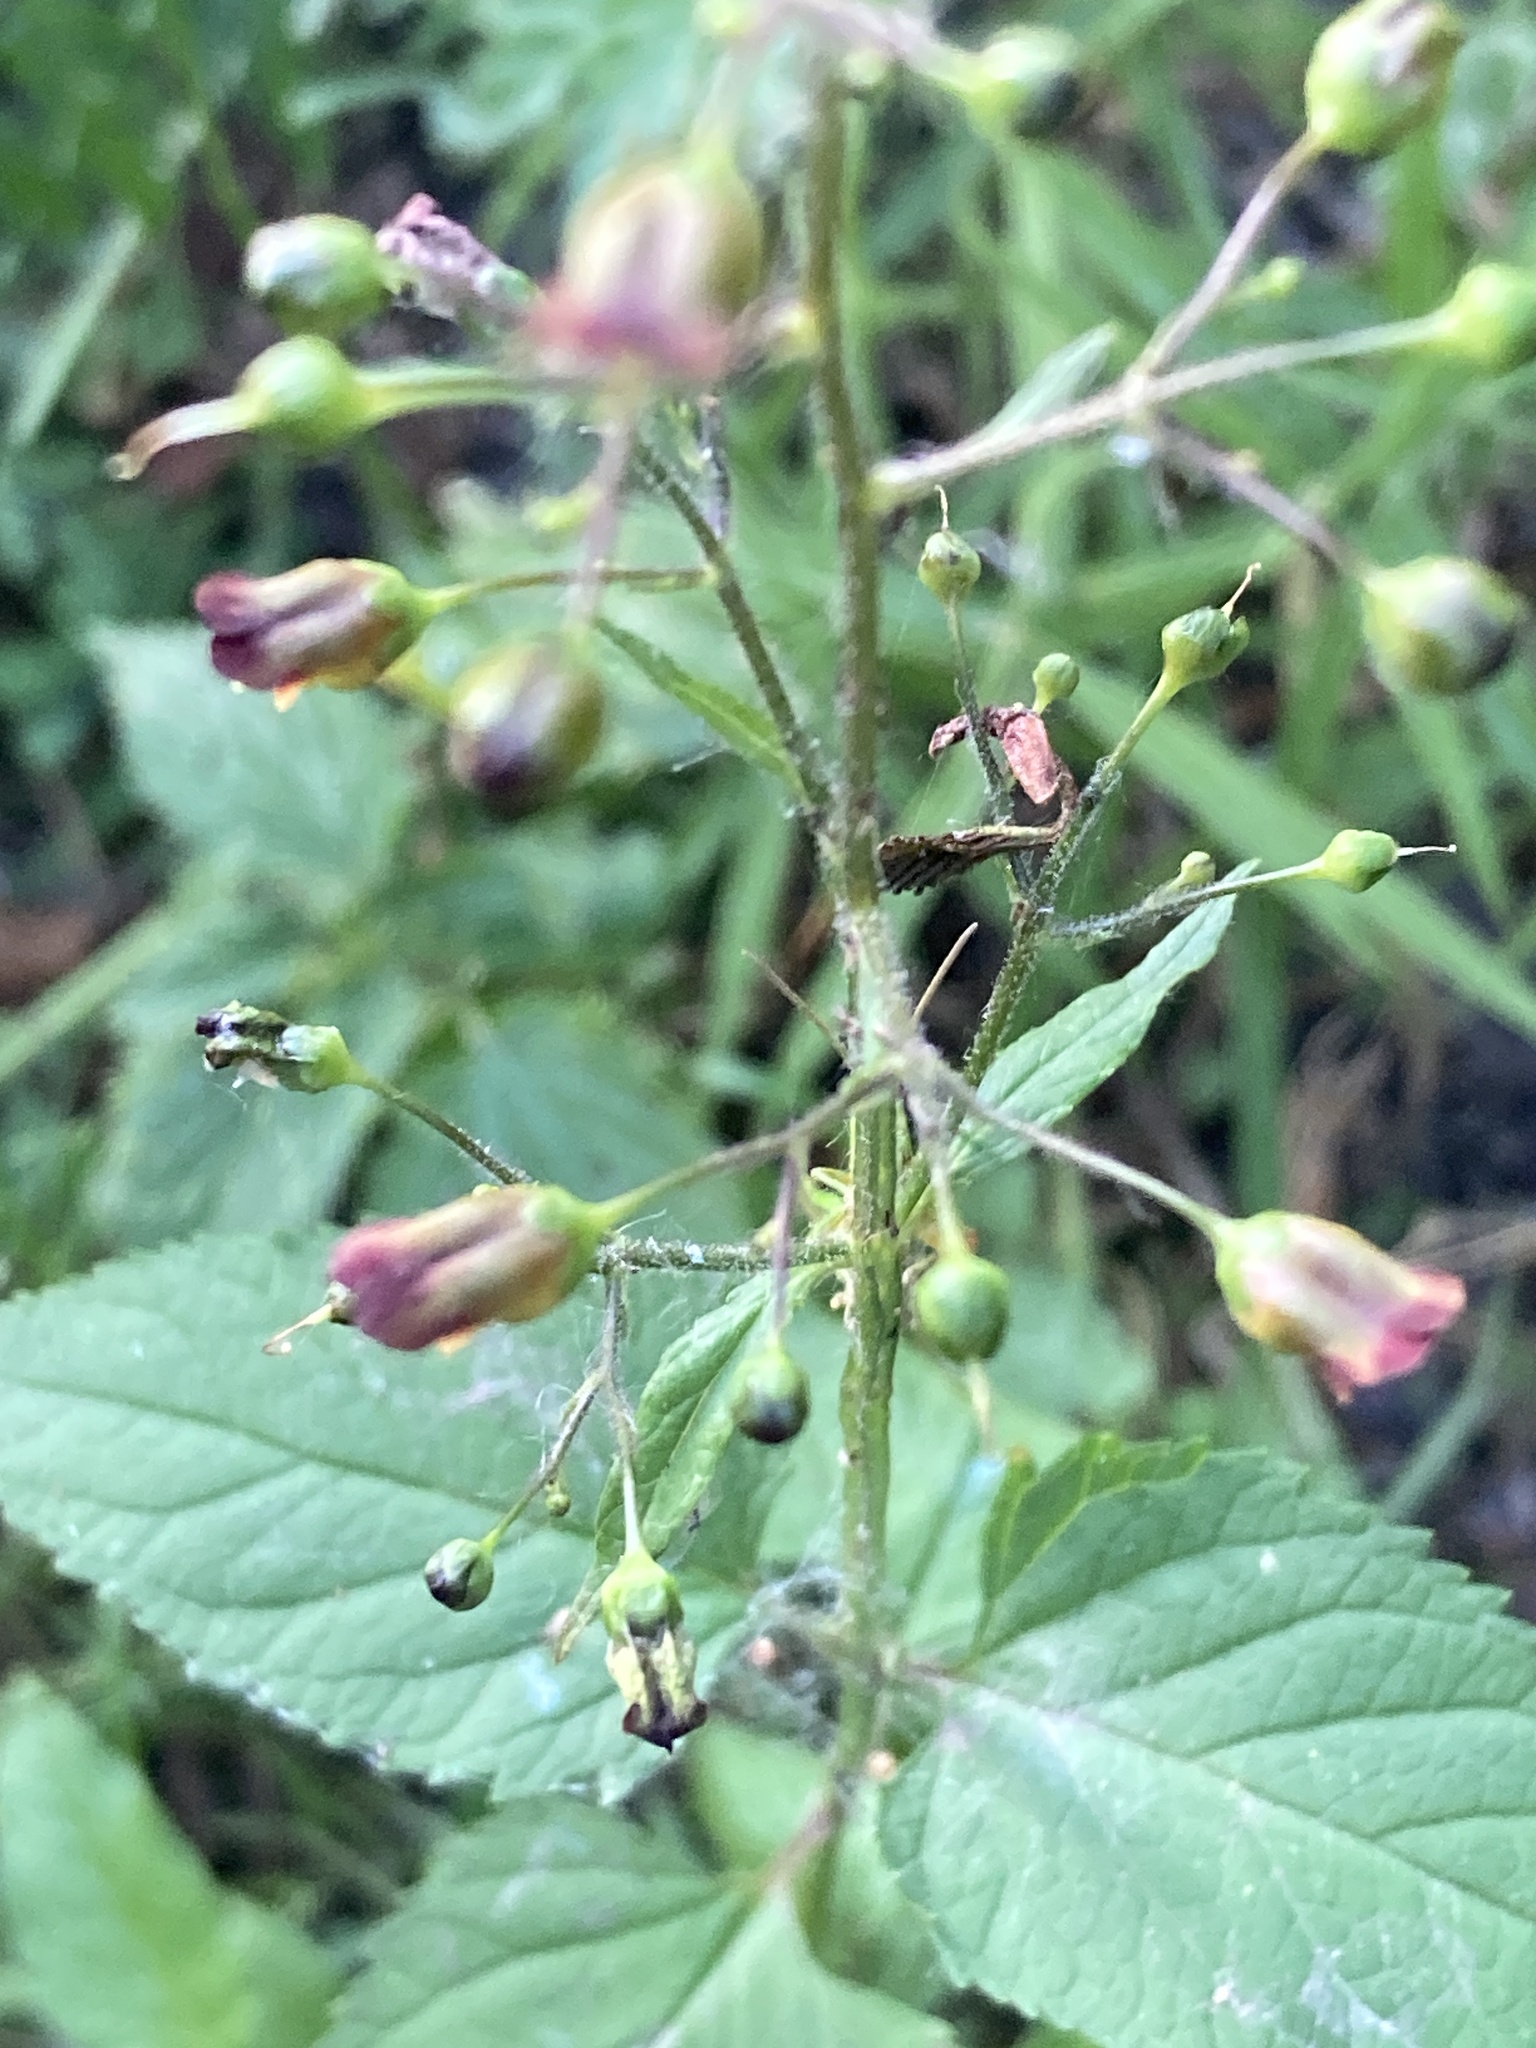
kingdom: Plantae
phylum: Tracheophyta
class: Magnoliopsida
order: Lamiales
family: Scrophulariaceae
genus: Scrophularia
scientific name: Scrophularia nodosa
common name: Common figwort
